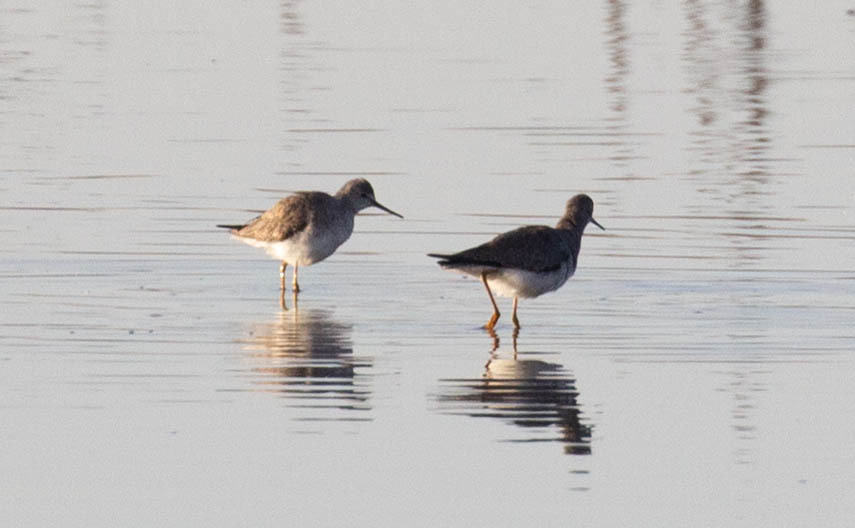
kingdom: Animalia
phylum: Chordata
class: Aves
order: Charadriiformes
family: Scolopacidae
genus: Tringa
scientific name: Tringa flavipes
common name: Lesser yellowlegs
